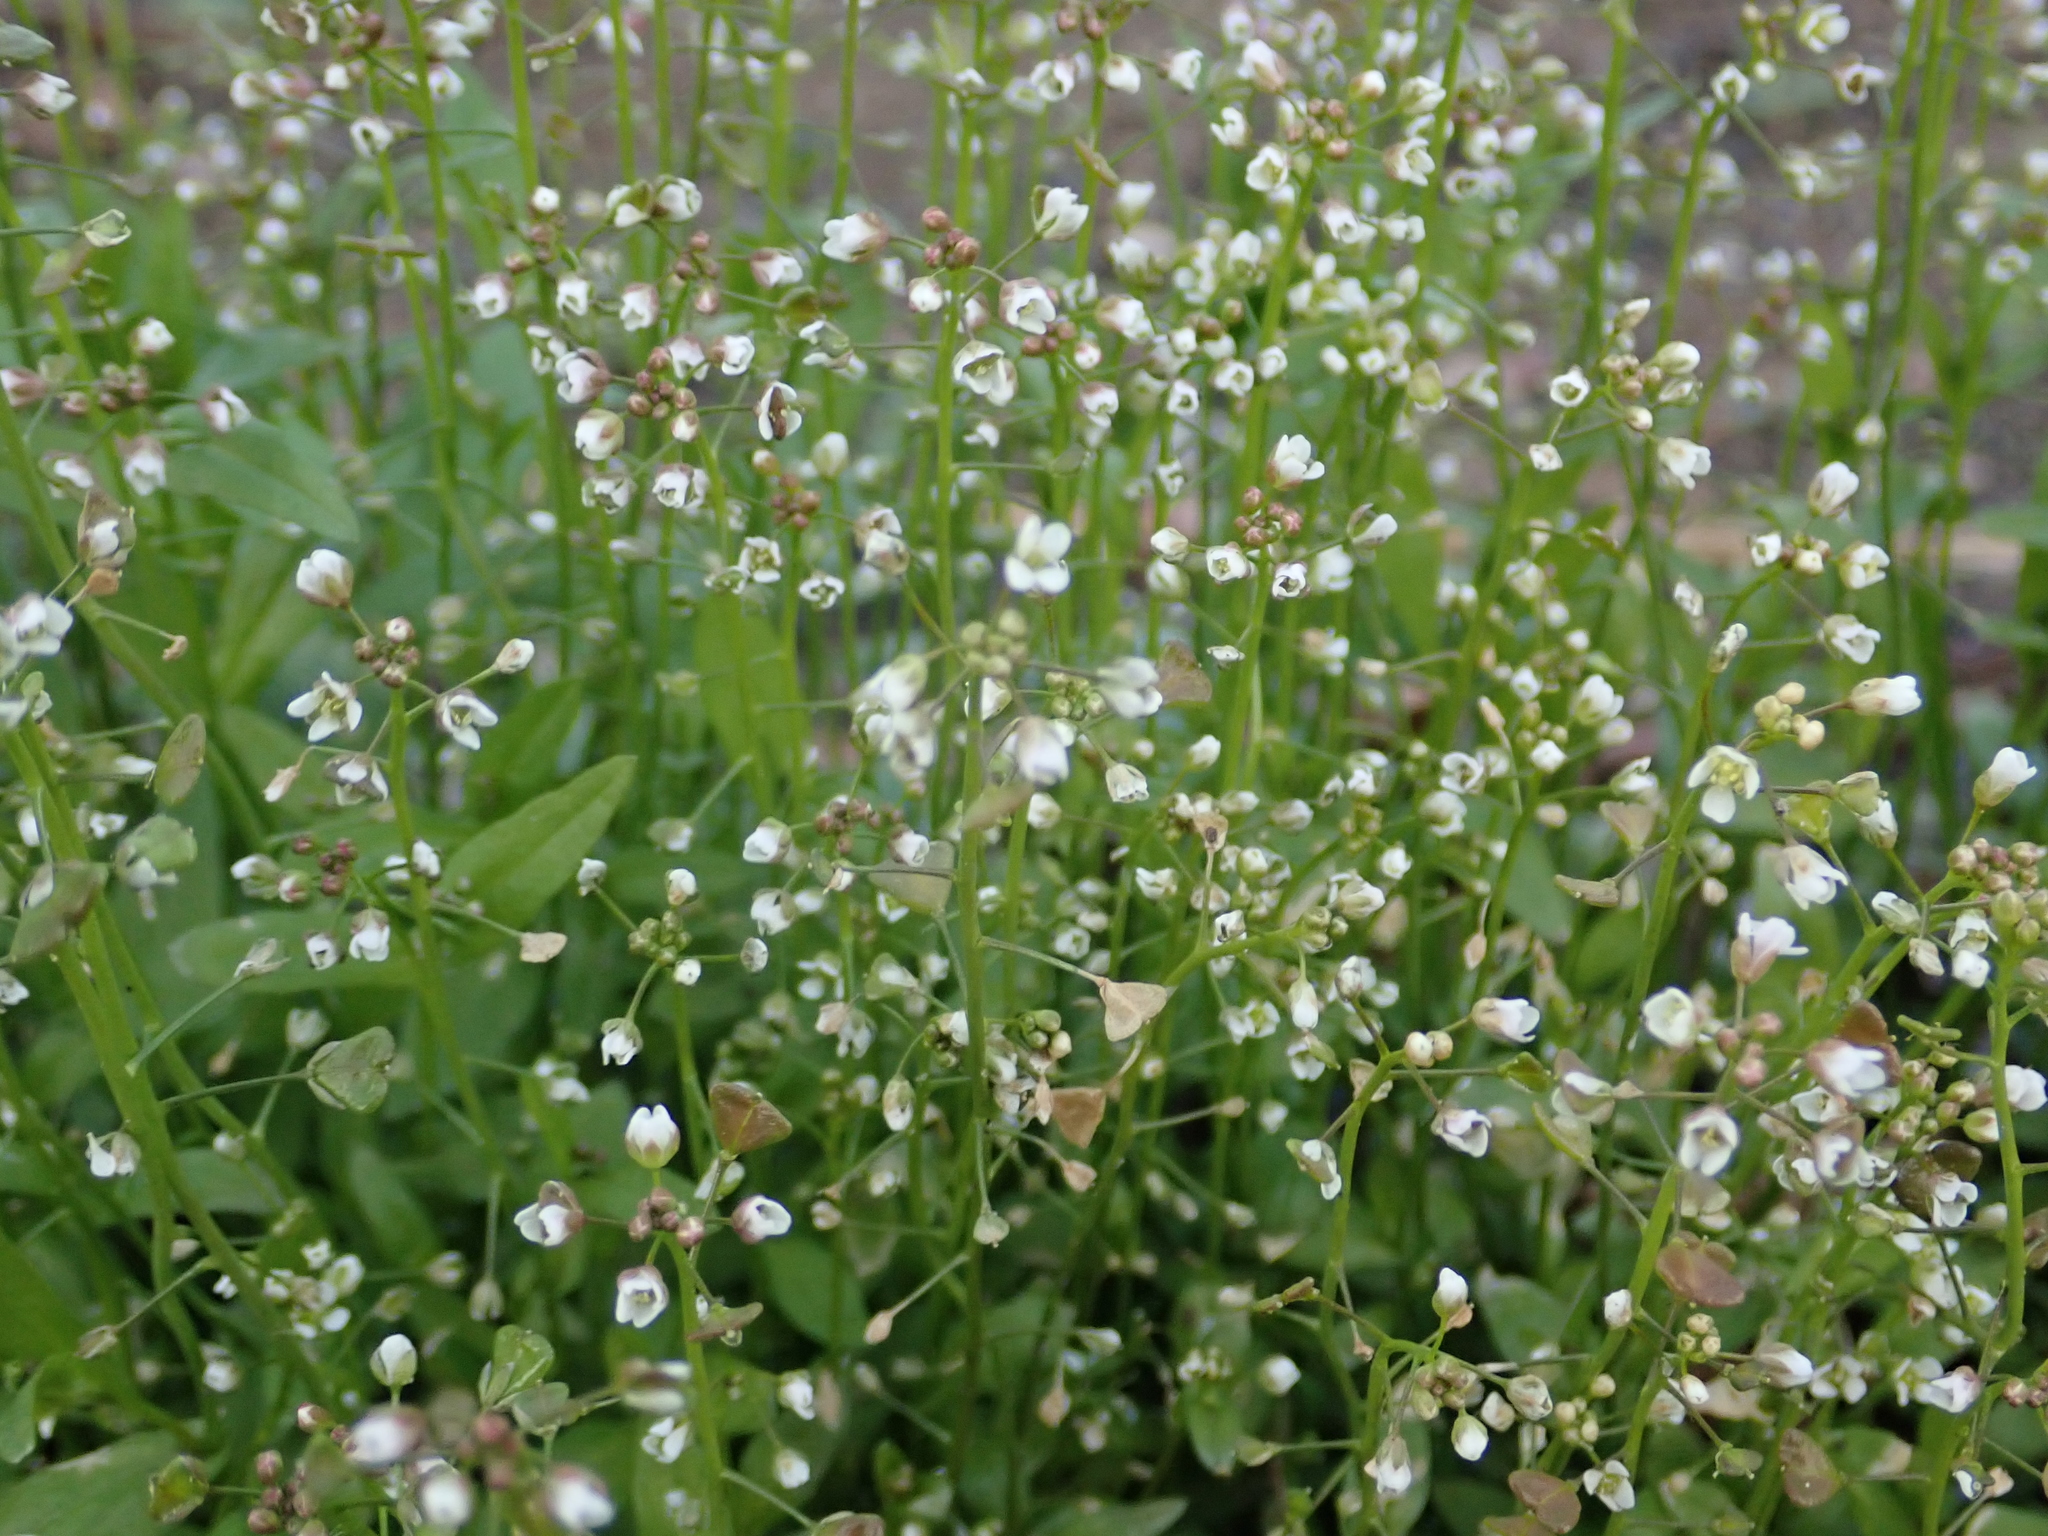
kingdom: Plantae
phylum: Tracheophyta
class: Magnoliopsida
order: Brassicales
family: Brassicaceae
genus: Capsella
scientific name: Capsella bursa-pastoris
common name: Shepherd's purse
